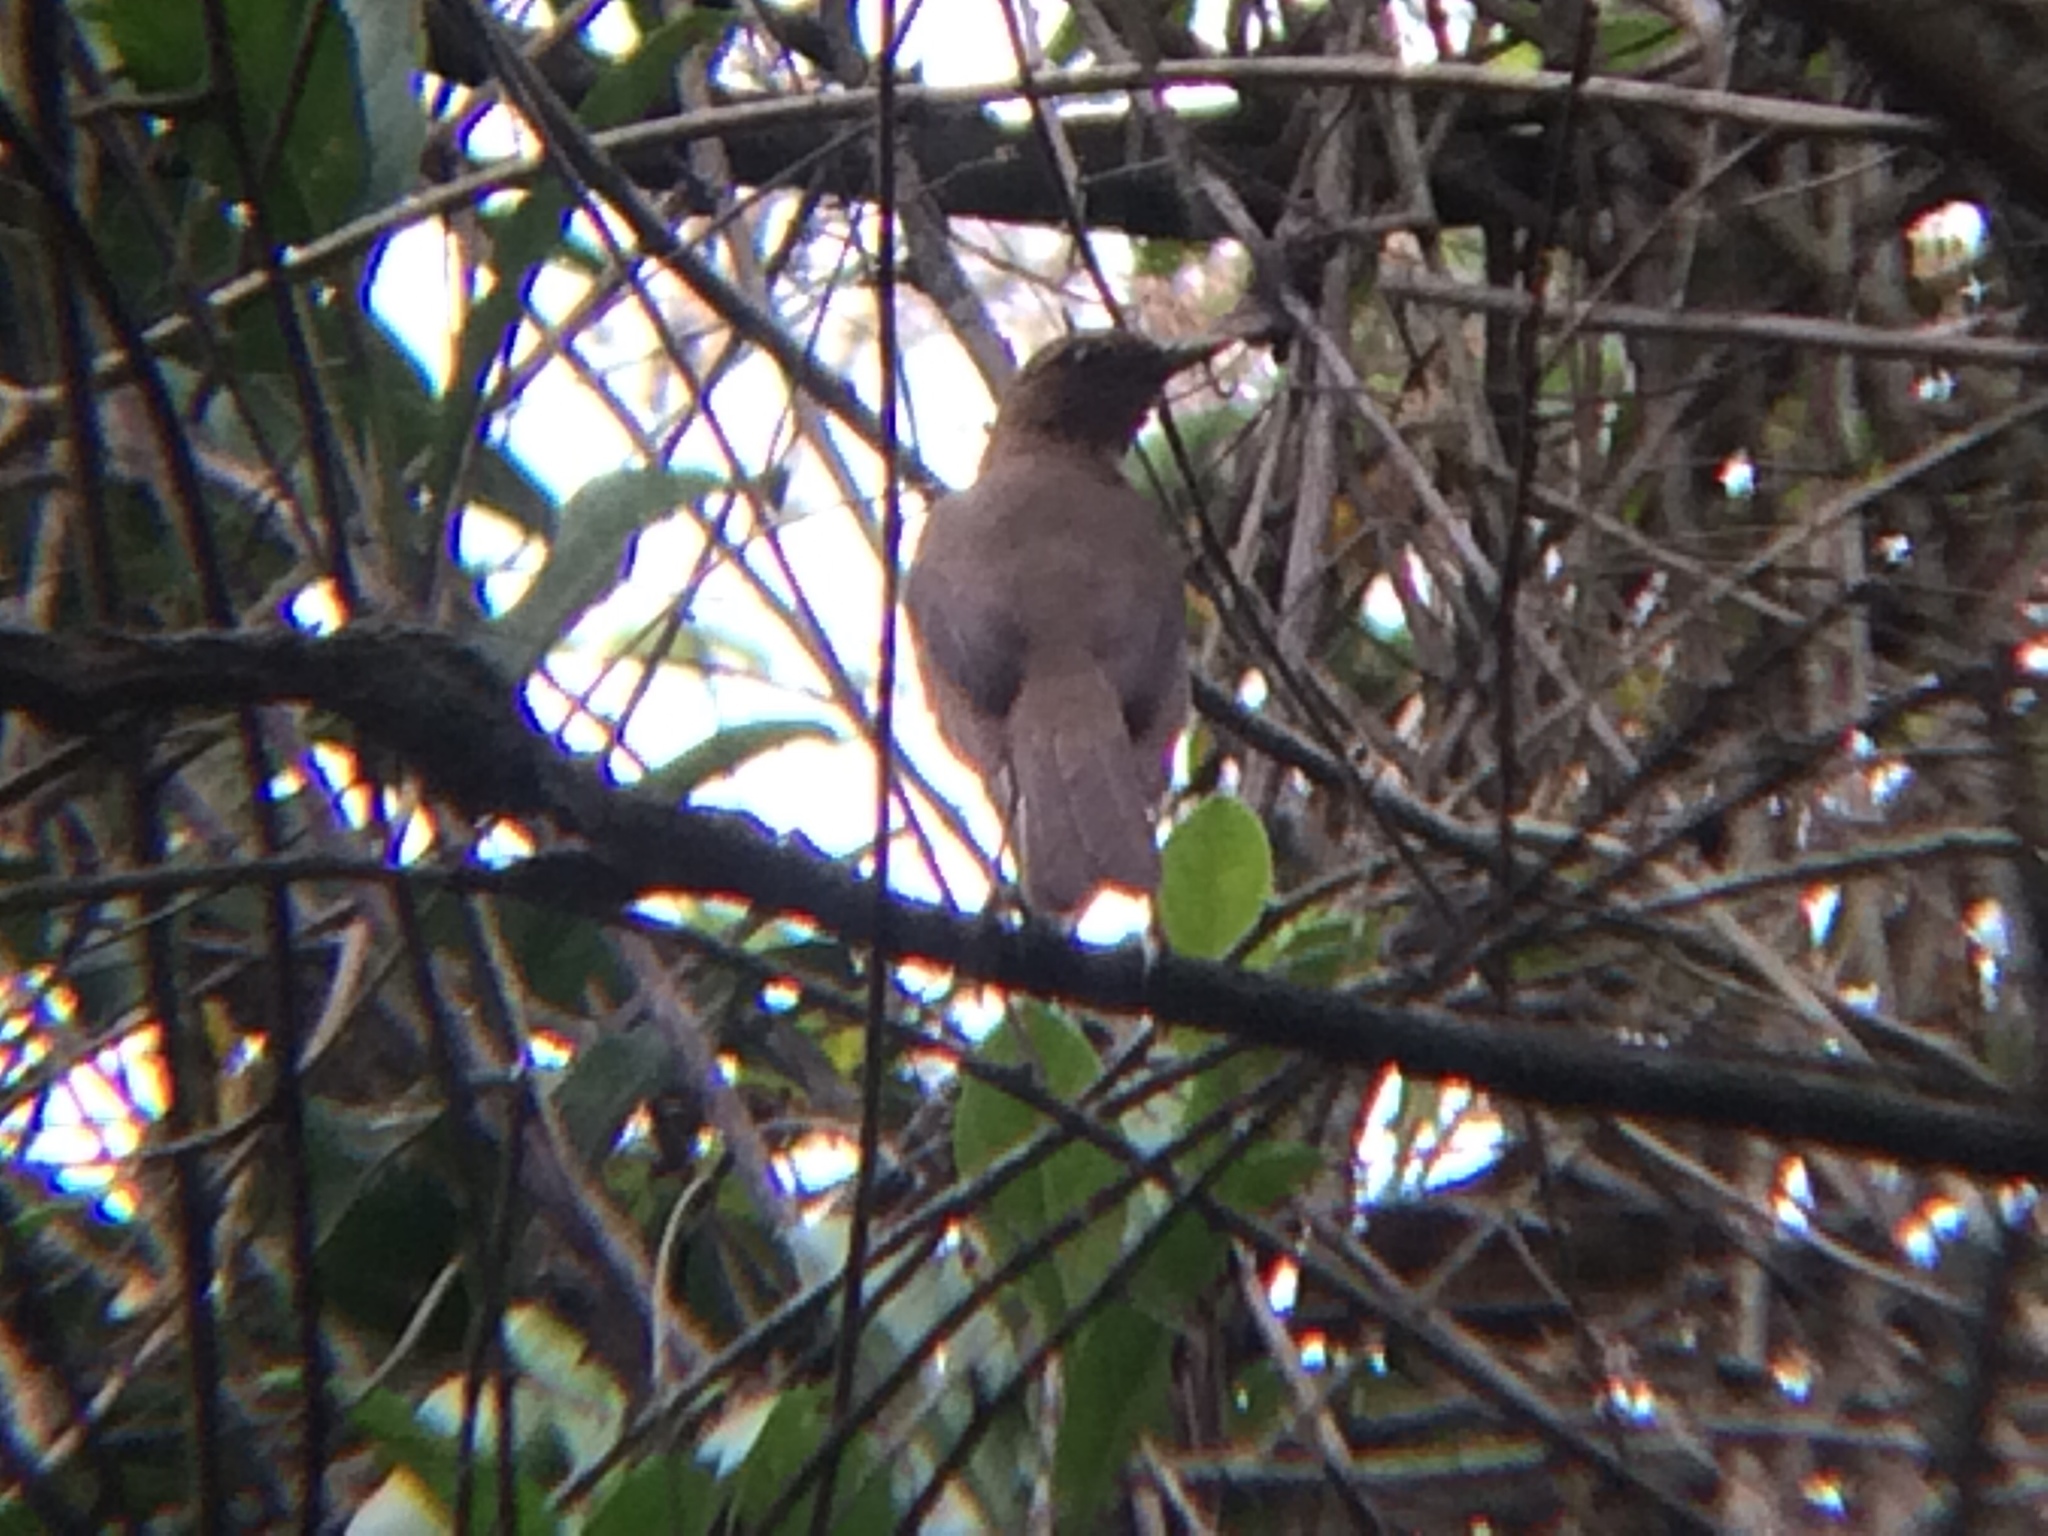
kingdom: Animalia
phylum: Chordata
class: Aves
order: Passeriformes
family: Turdidae
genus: Turdus
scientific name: Turdus grayi
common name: Clay-colored thrush
